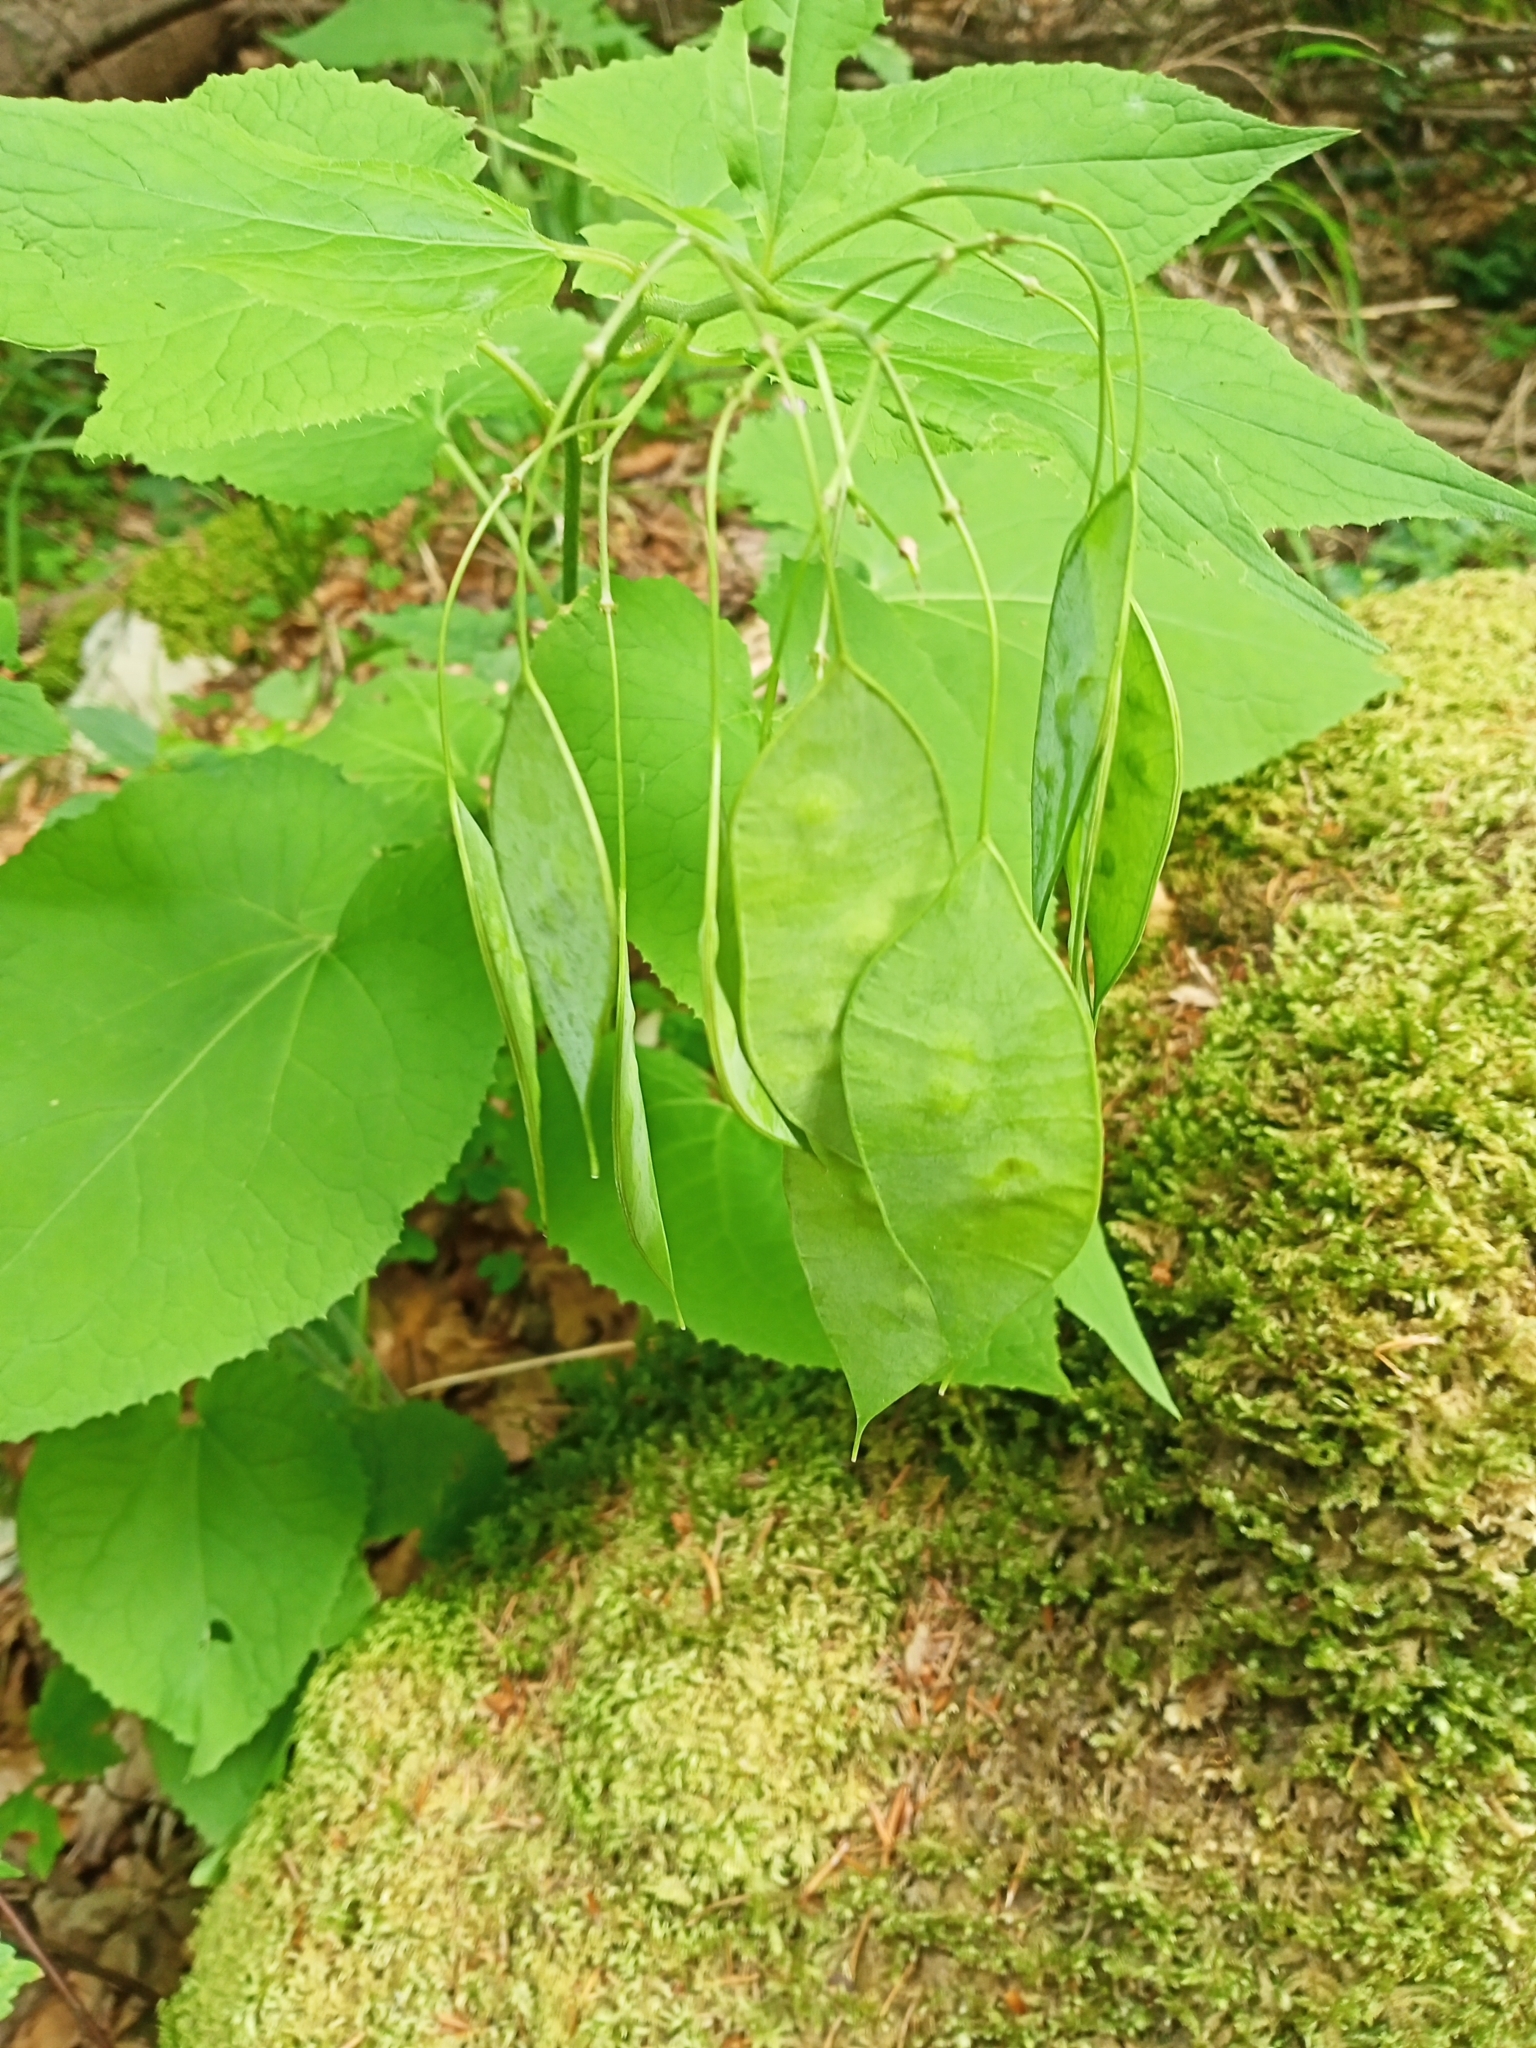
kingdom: Plantae
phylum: Tracheophyta
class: Magnoliopsida
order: Brassicales
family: Brassicaceae
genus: Lunaria
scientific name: Lunaria rediviva
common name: Perennial honesty
